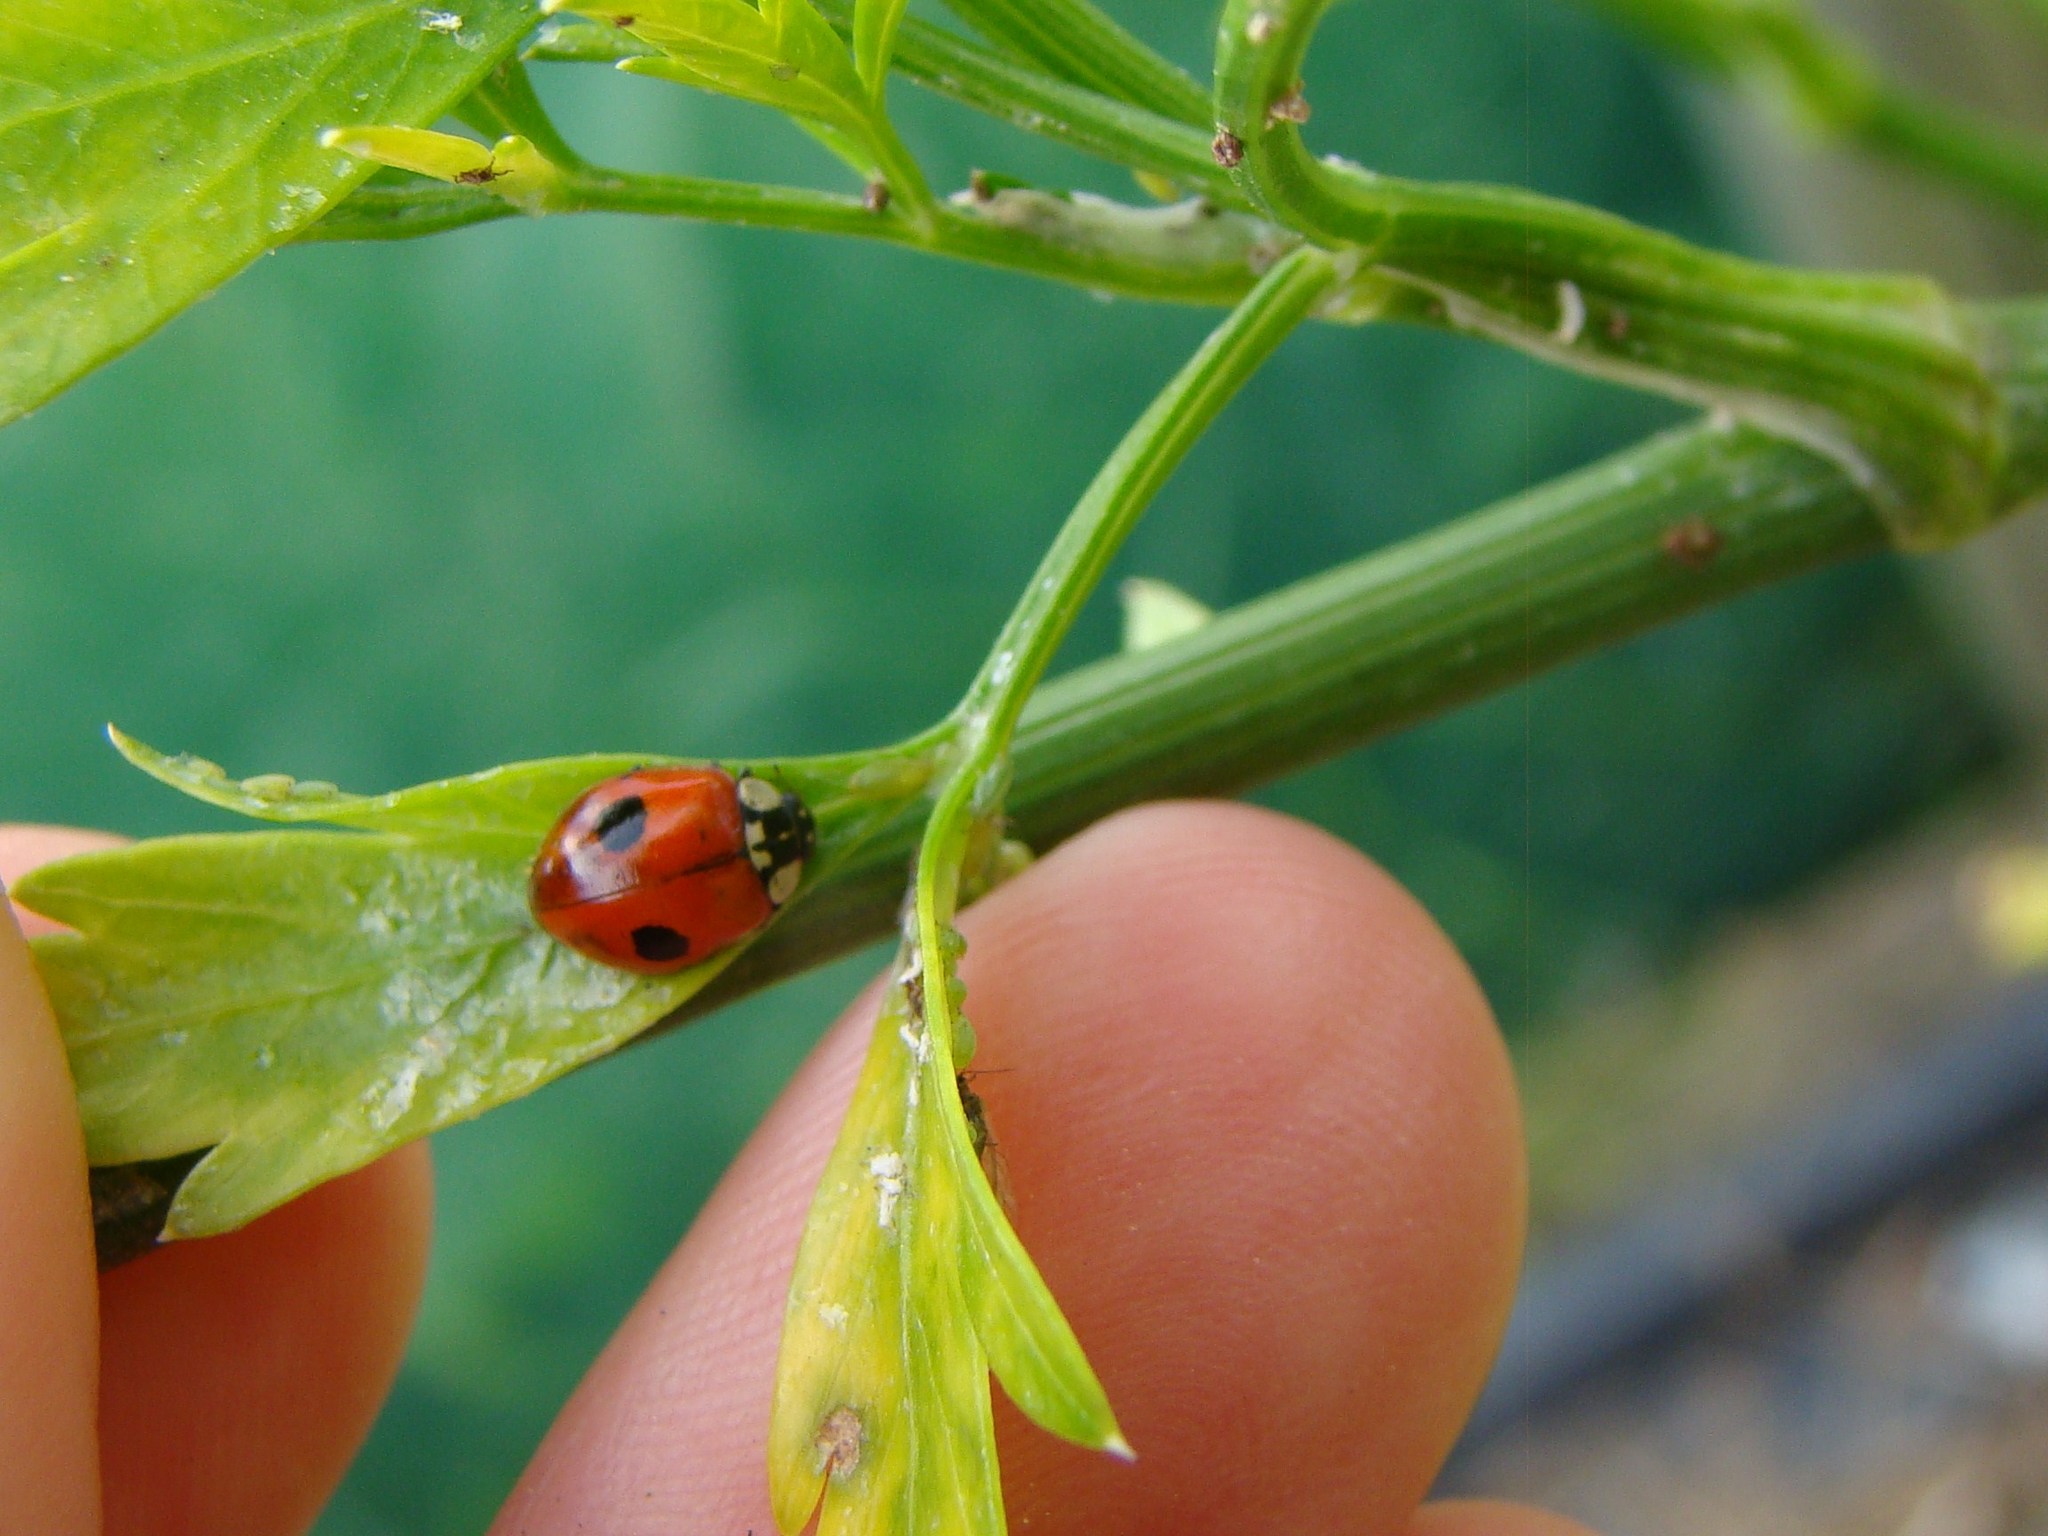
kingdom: Animalia
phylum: Arthropoda
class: Insecta
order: Coleoptera
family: Coccinellidae
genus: Adalia
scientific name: Adalia bipunctata
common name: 2-spot ladybird
